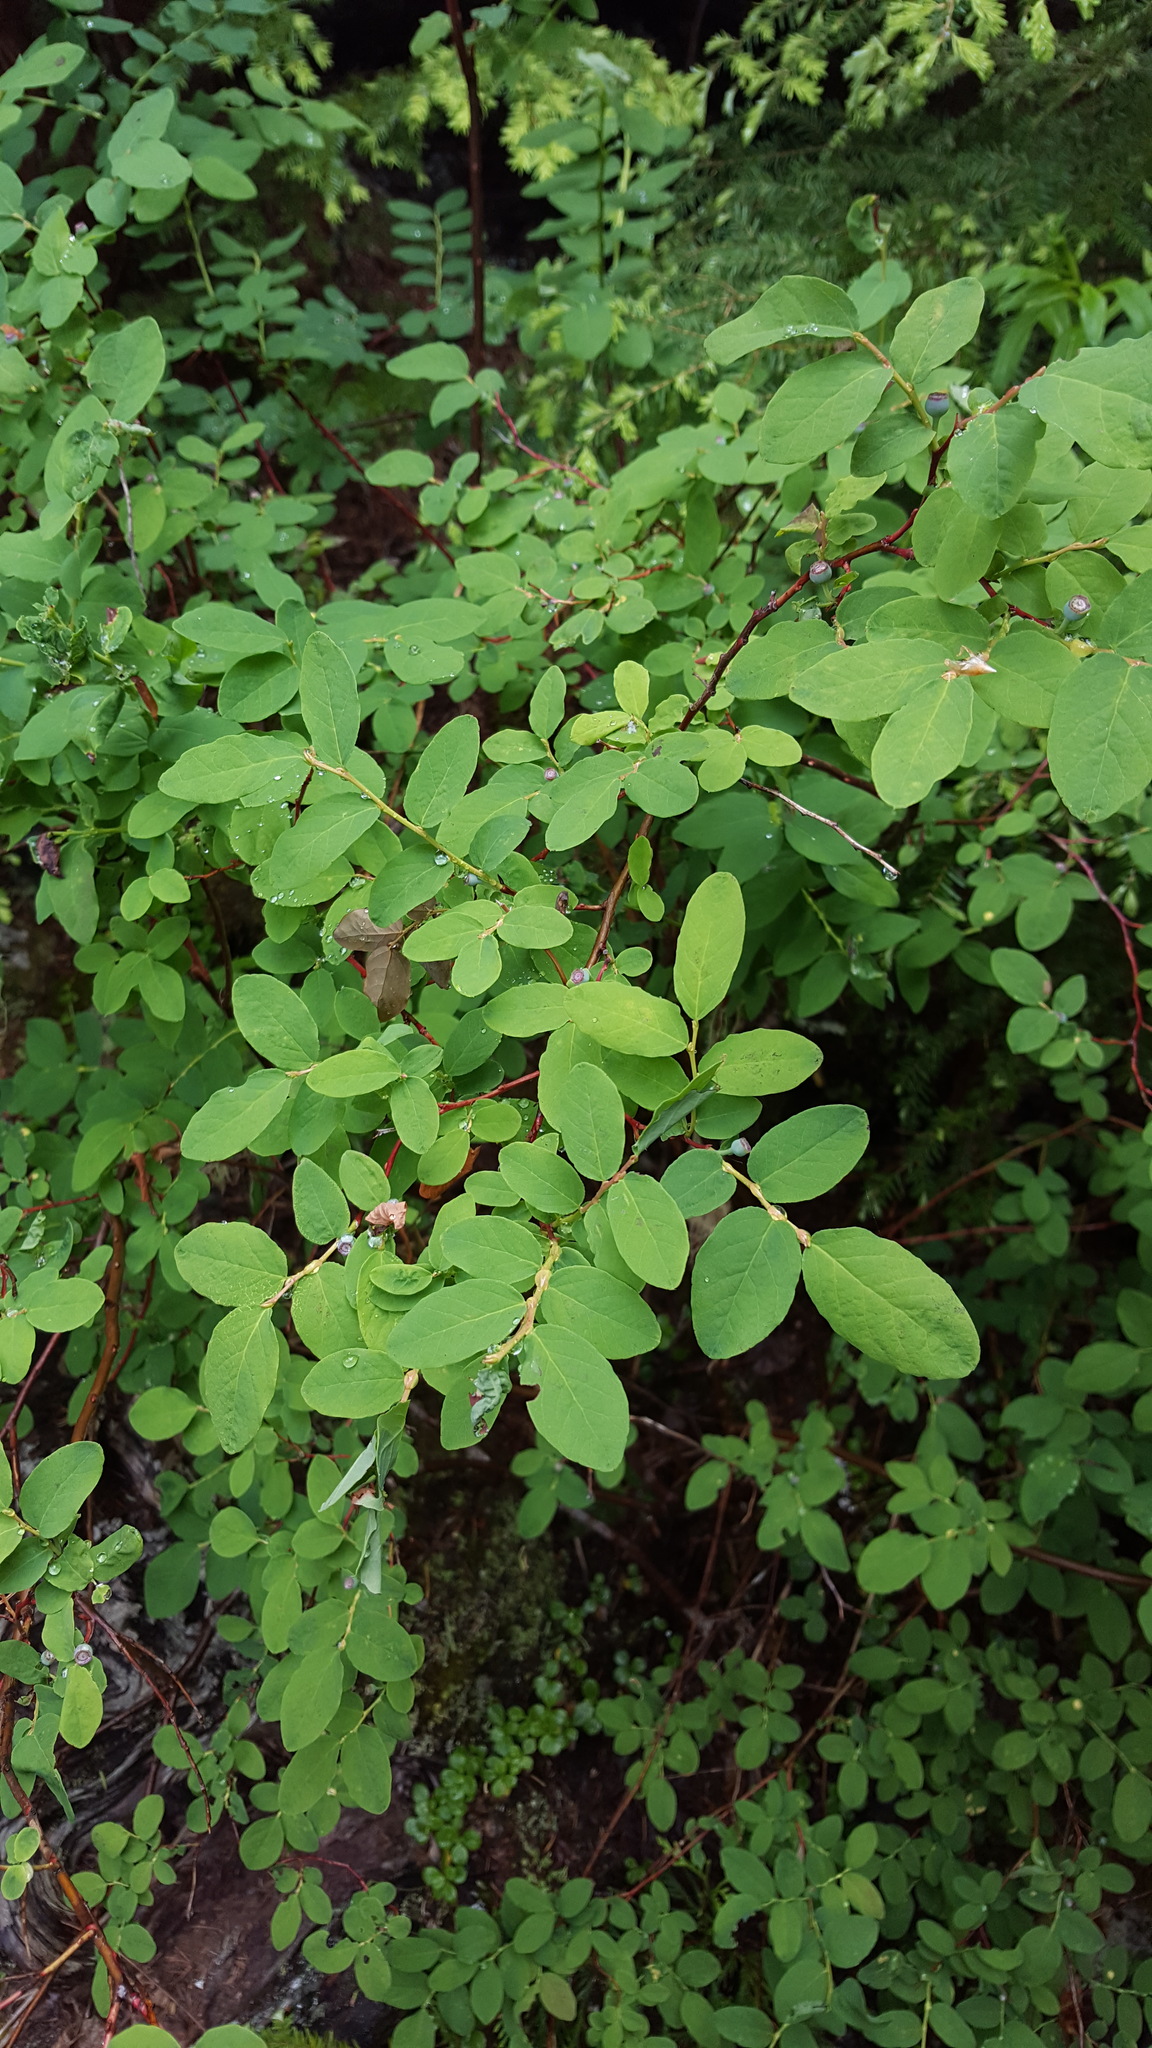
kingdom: Plantae
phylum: Tracheophyta
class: Magnoliopsida
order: Ericales
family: Ericaceae
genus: Vaccinium
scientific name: Vaccinium ovalifolium
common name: Early blueberry
